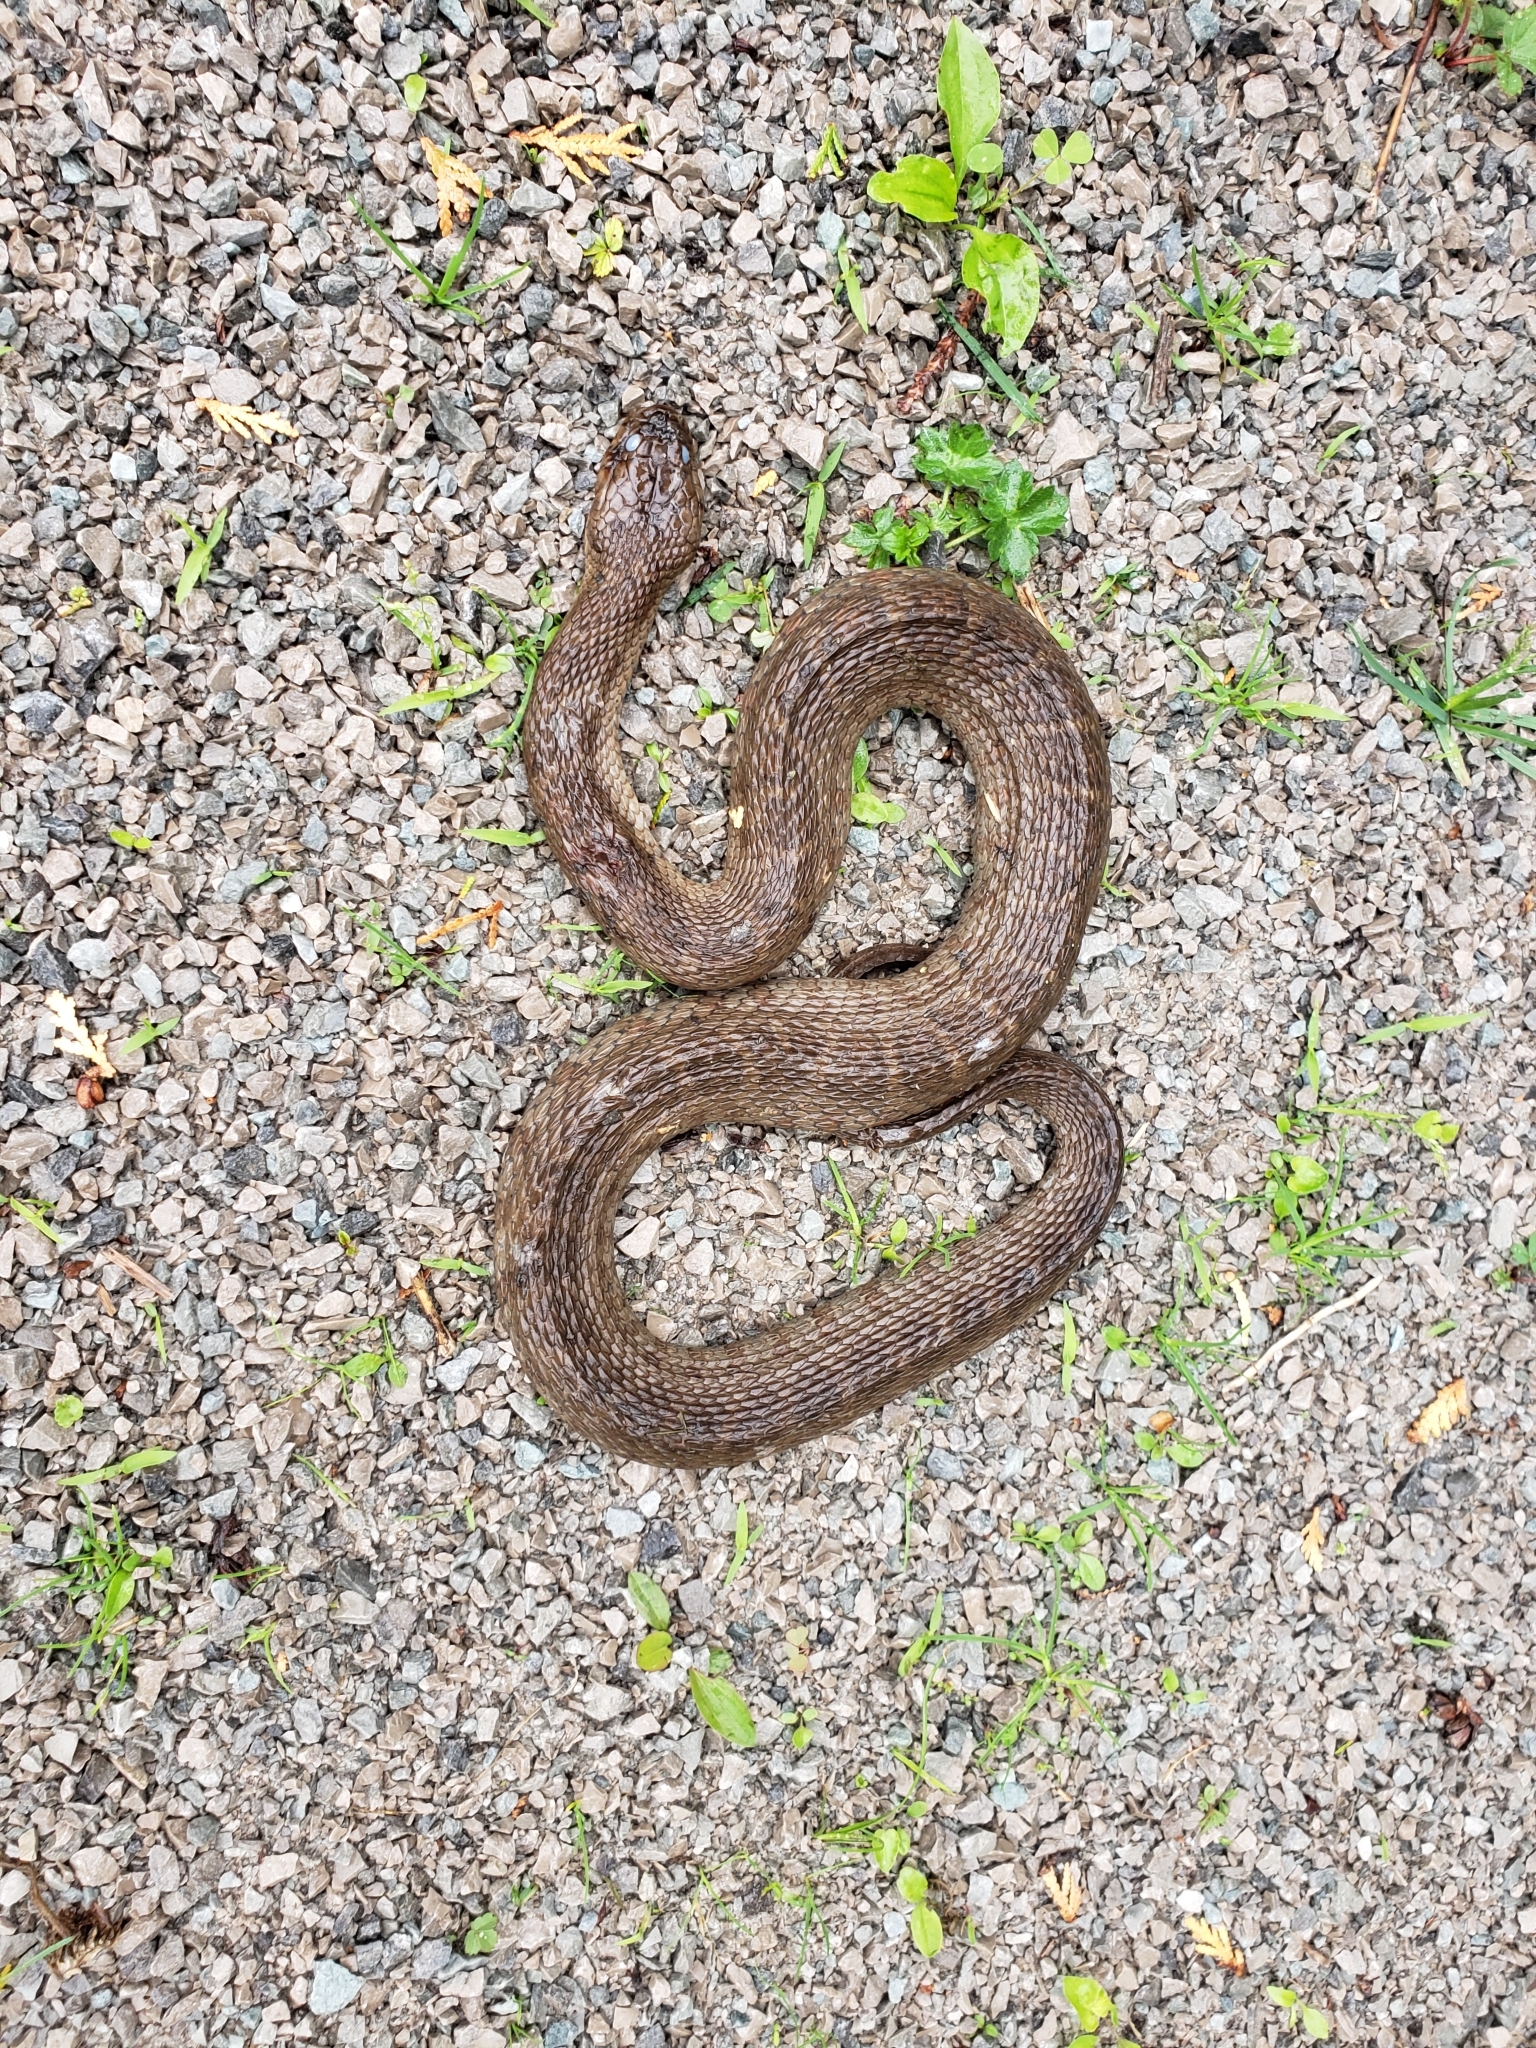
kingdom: Animalia
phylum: Chordata
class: Squamata
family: Colubridae
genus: Nerodia
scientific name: Nerodia sipedon
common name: Northern water snake
